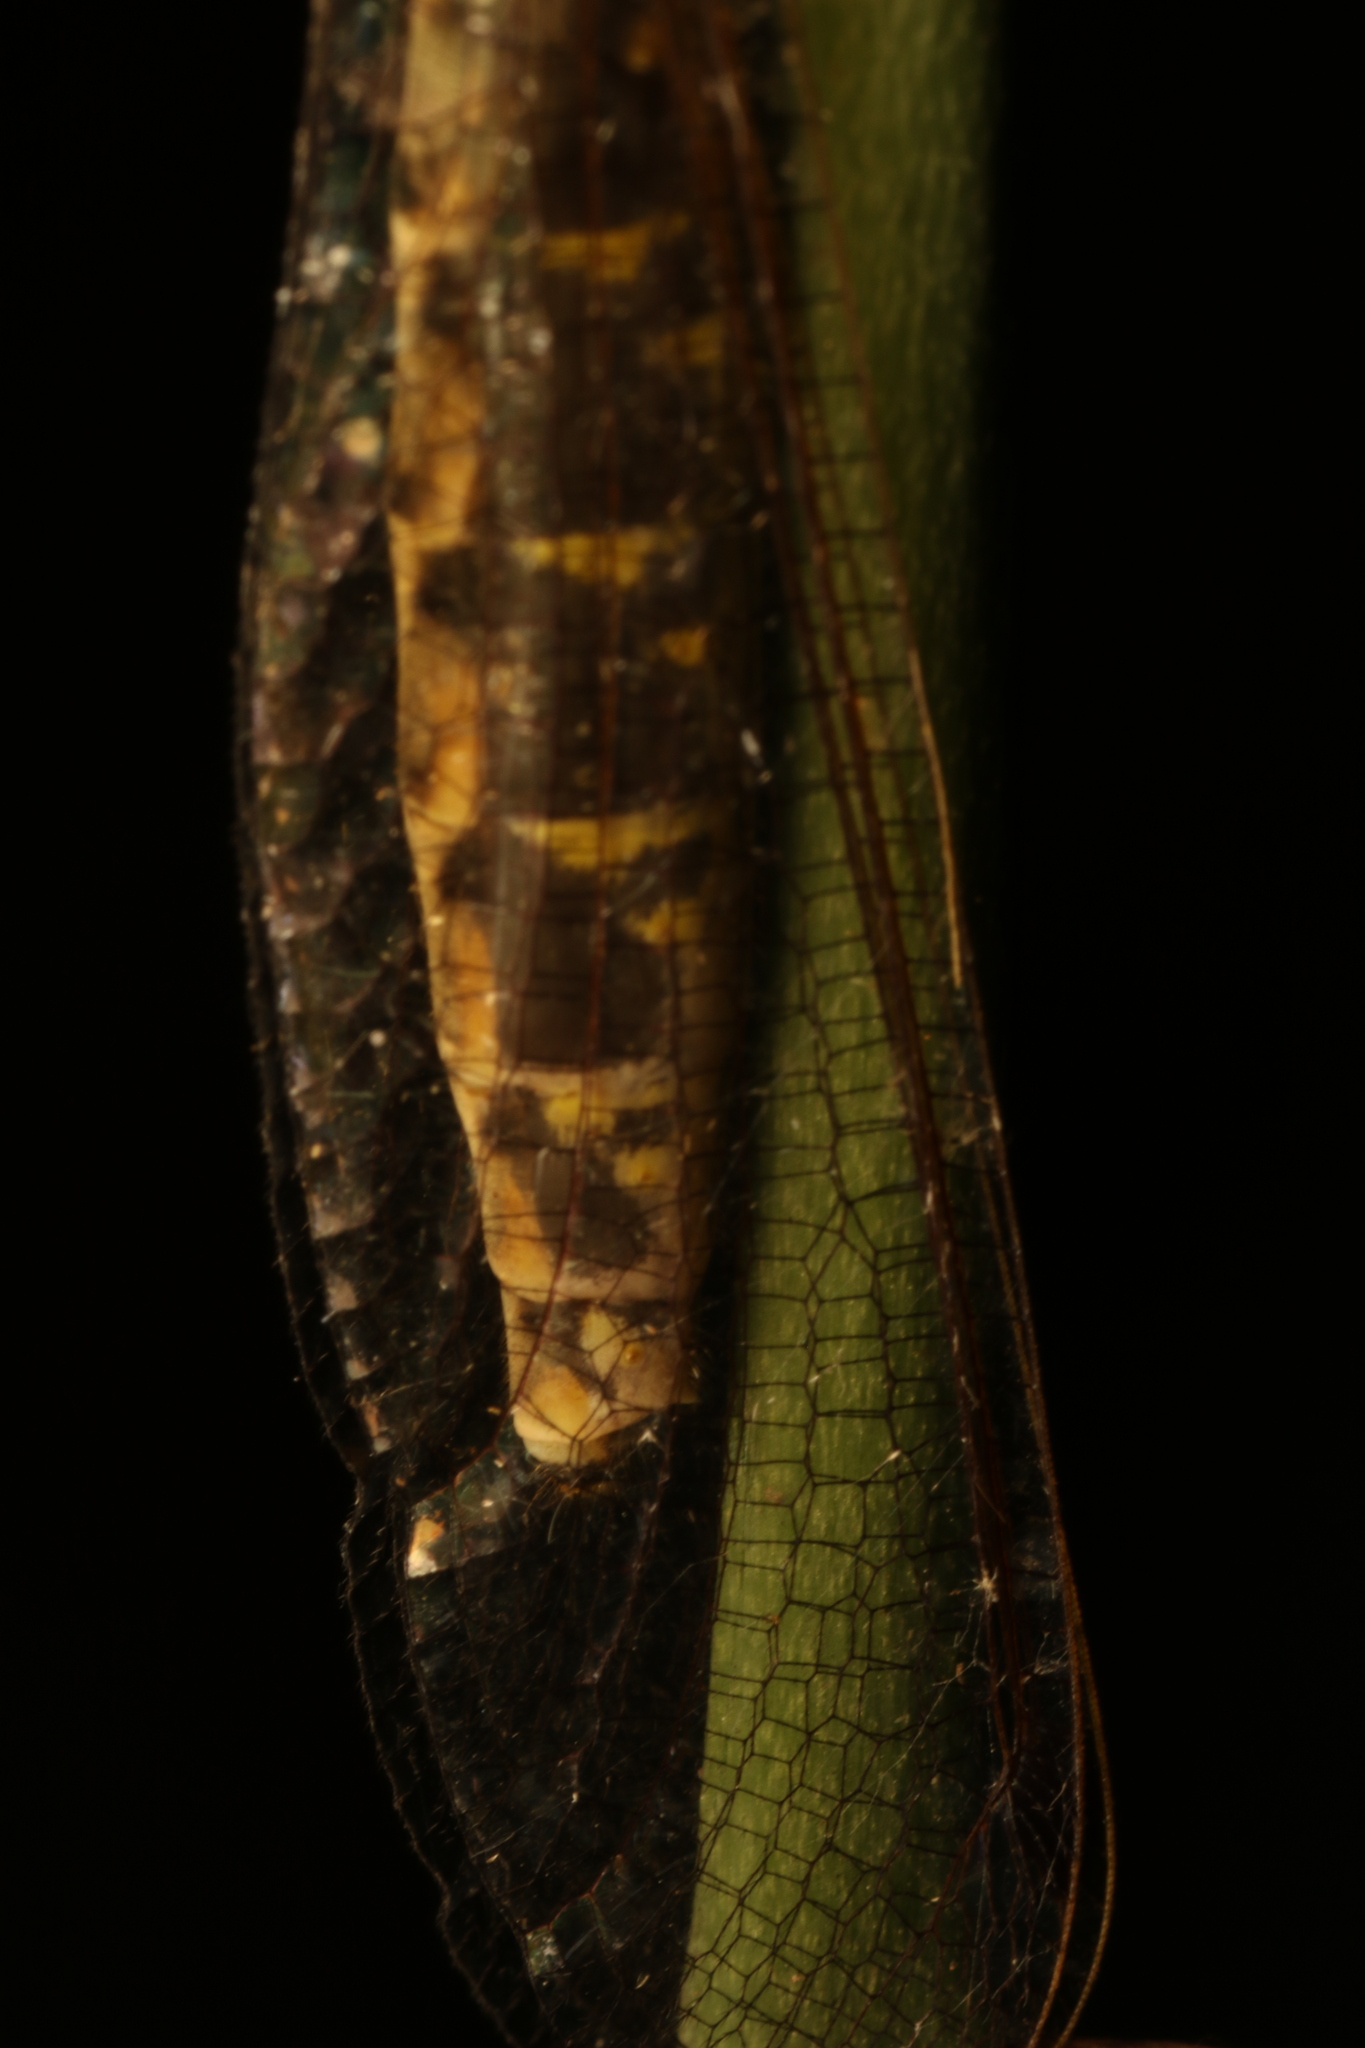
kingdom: Animalia
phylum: Arthropoda
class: Insecta
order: Neuroptera
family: Ascalaphidae
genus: Ameropterus
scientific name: Ameropterus versicolor
